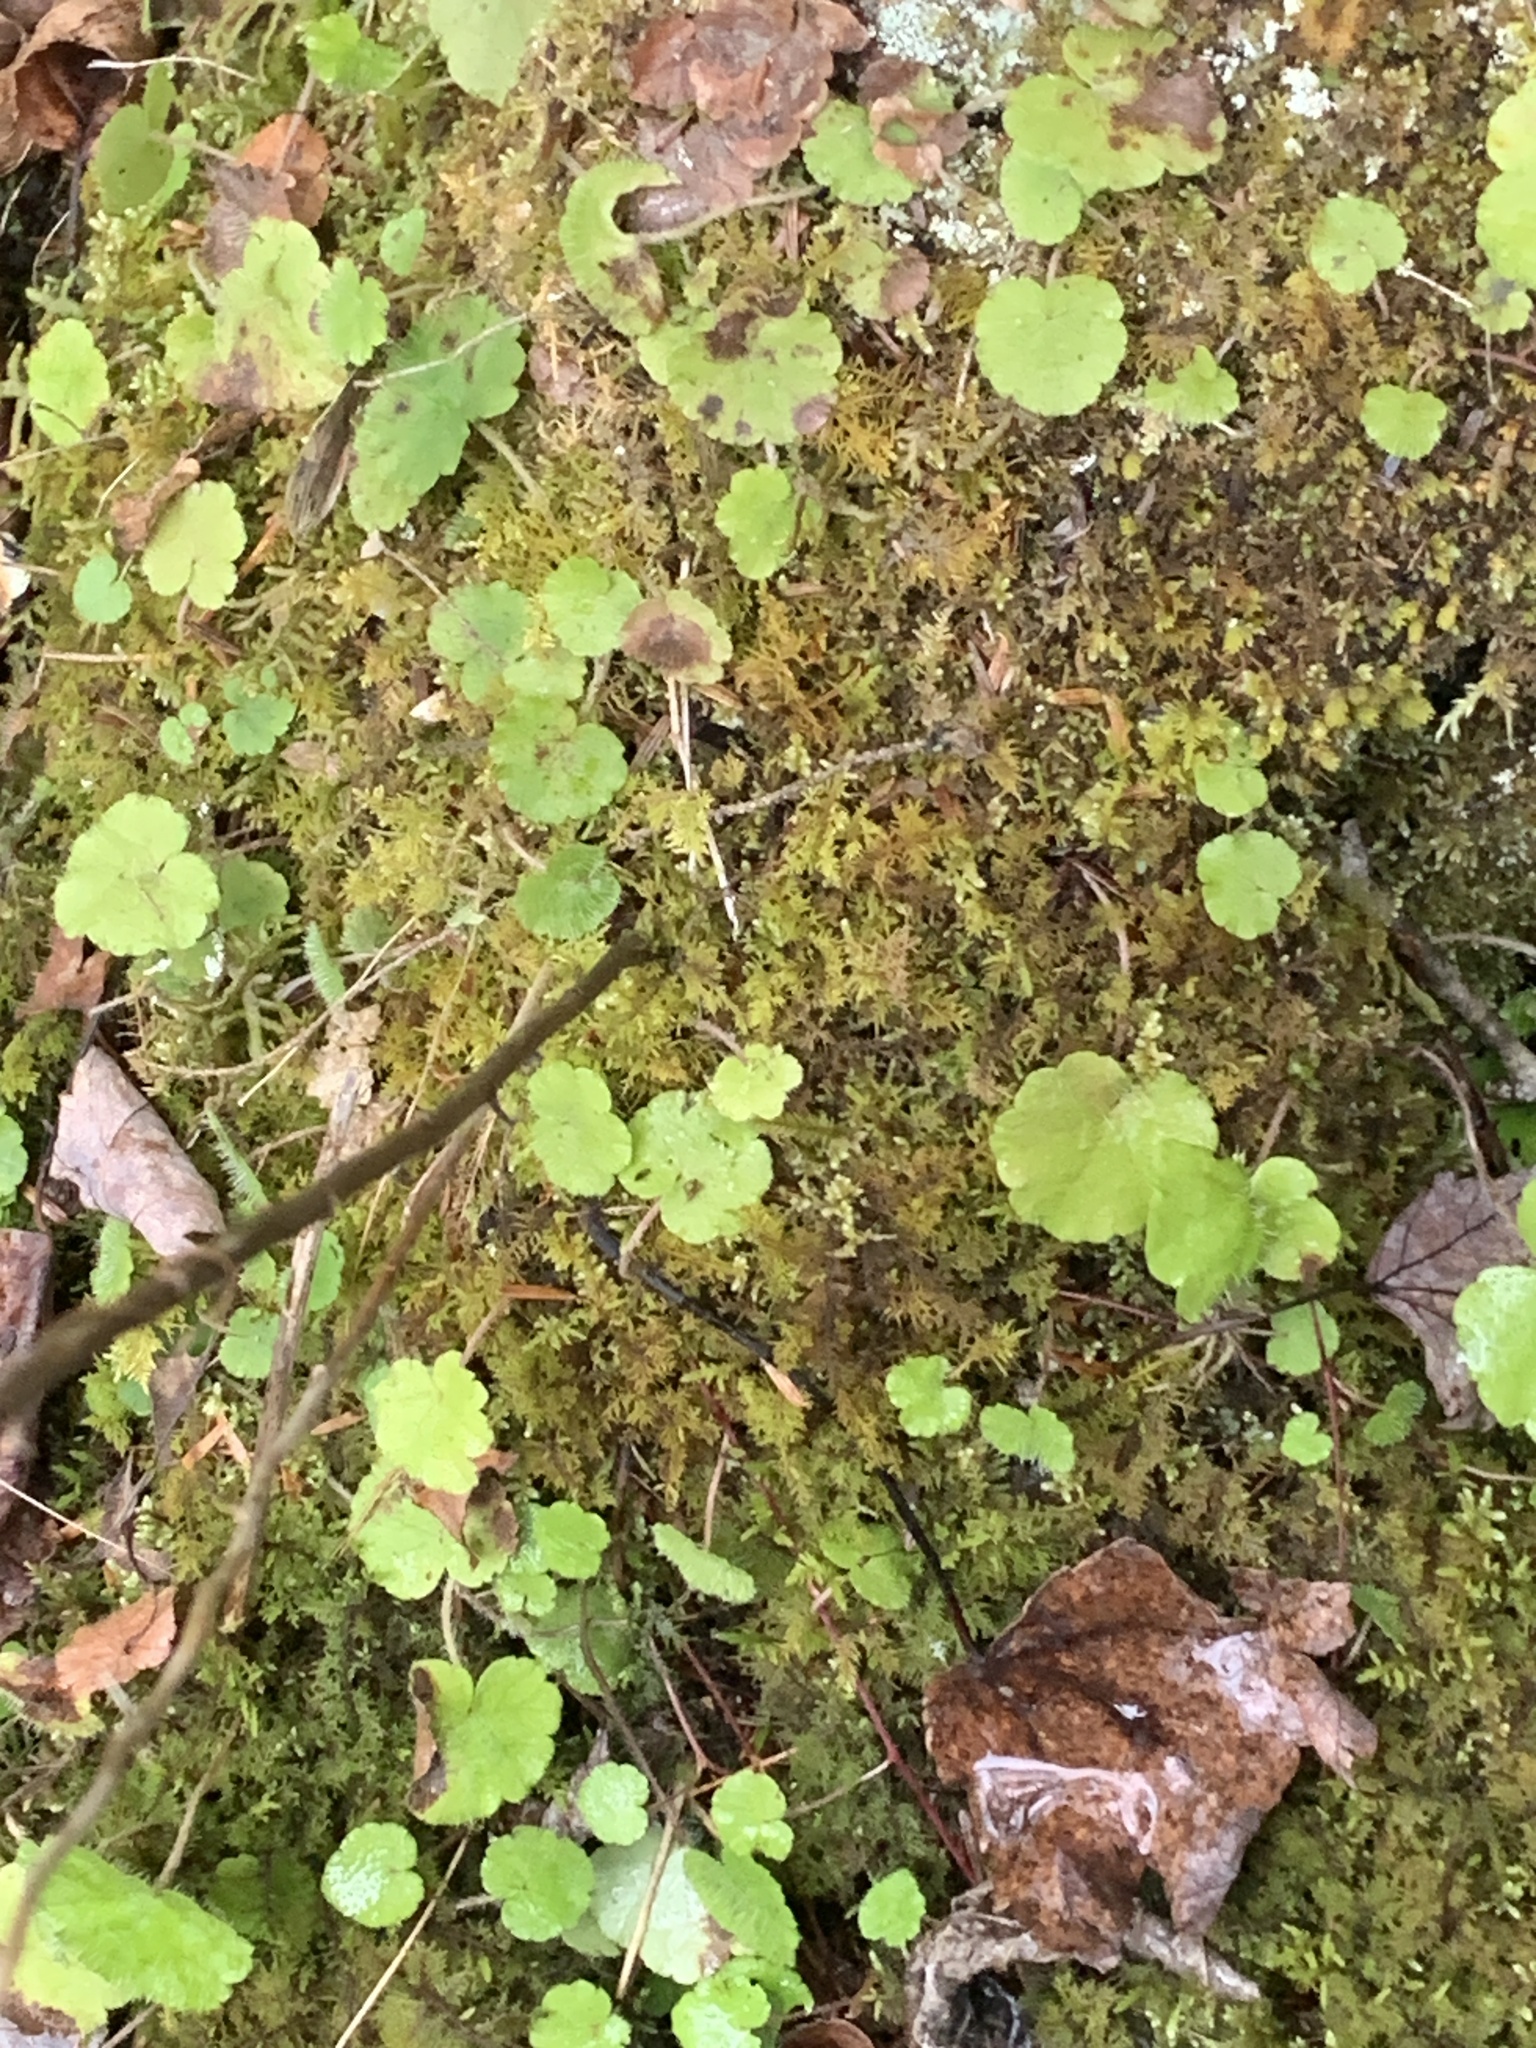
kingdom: Plantae
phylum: Tracheophyta
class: Magnoliopsida
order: Saxifragales
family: Saxifragaceae
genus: Mitella
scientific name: Mitella nuda
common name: Bare-stemmed bishop's-cap
